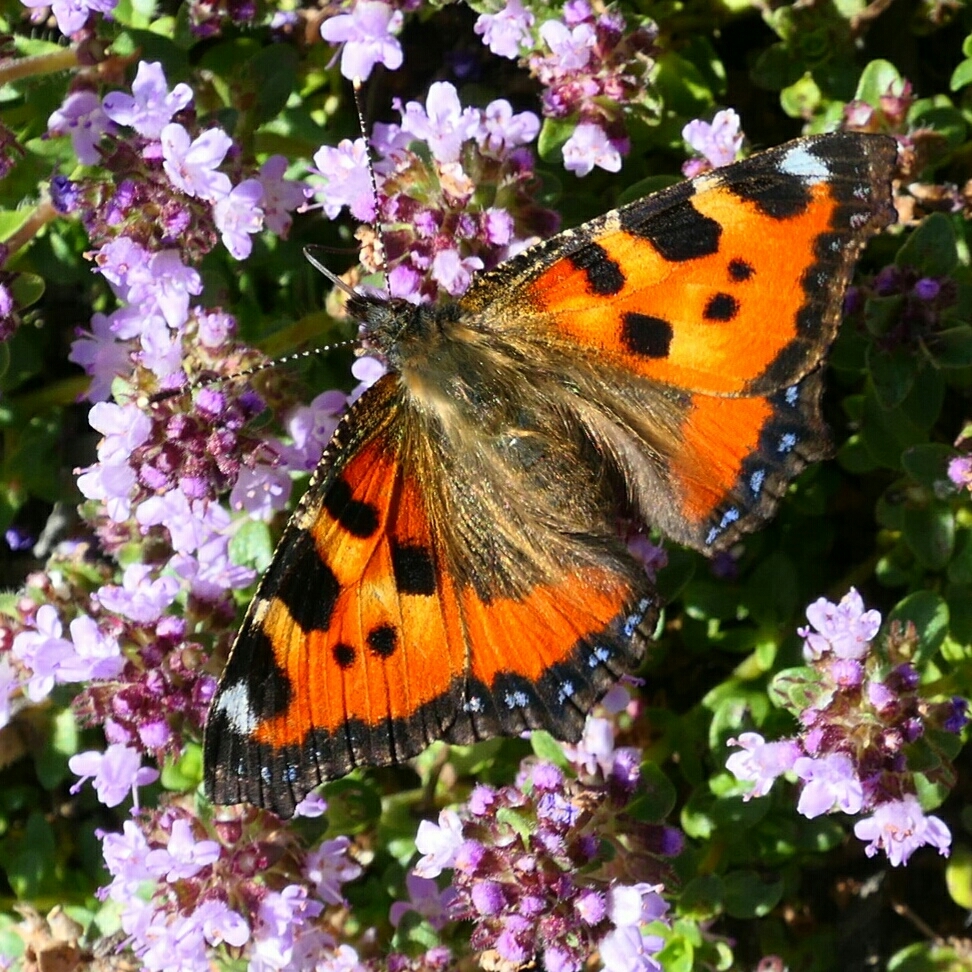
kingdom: Animalia
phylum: Arthropoda
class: Insecta
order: Lepidoptera
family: Nymphalidae
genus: Aglais
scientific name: Aglais urticae
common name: Small tortoiseshell
